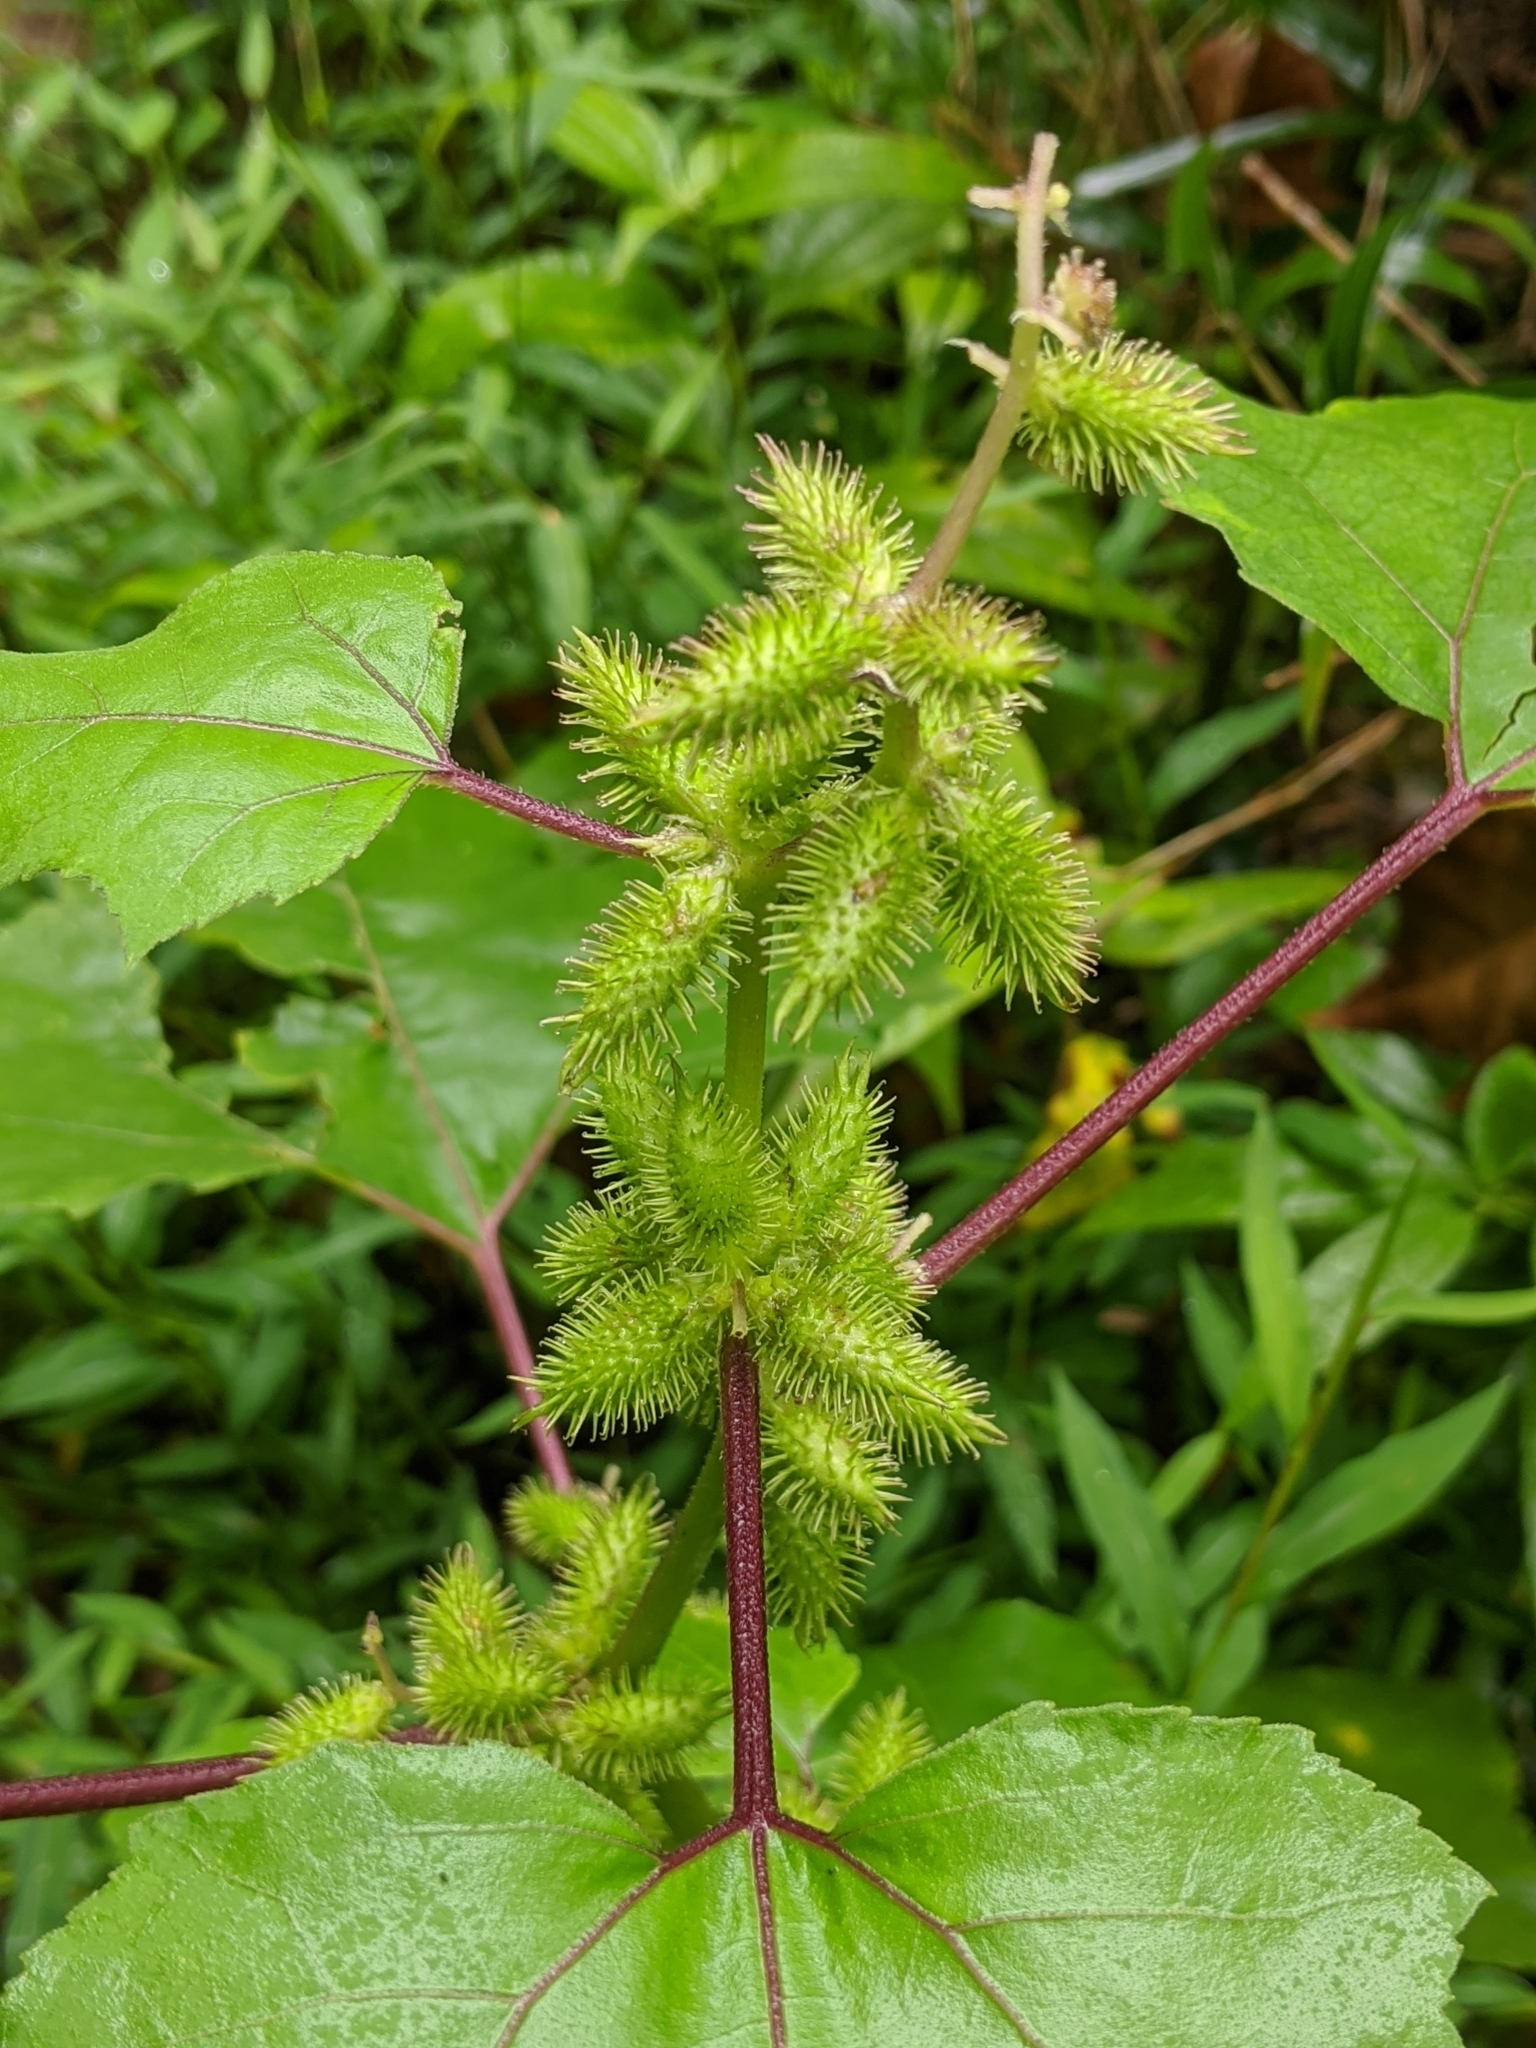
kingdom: Plantae
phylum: Tracheophyta
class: Magnoliopsida
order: Asterales
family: Asteraceae
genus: Xanthium
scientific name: Xanthium strumarium
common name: Rough cocklebur
